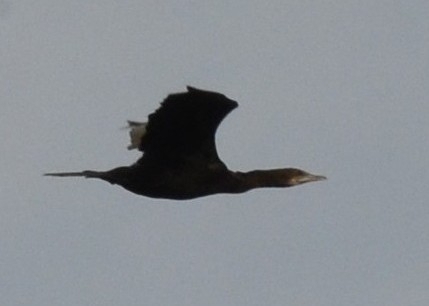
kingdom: Animalia
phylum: Chordata
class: Aves
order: Suliformes
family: Phalacrocoracidae
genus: Microcarbo
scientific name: Microcarbo niger
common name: Little cormorant
